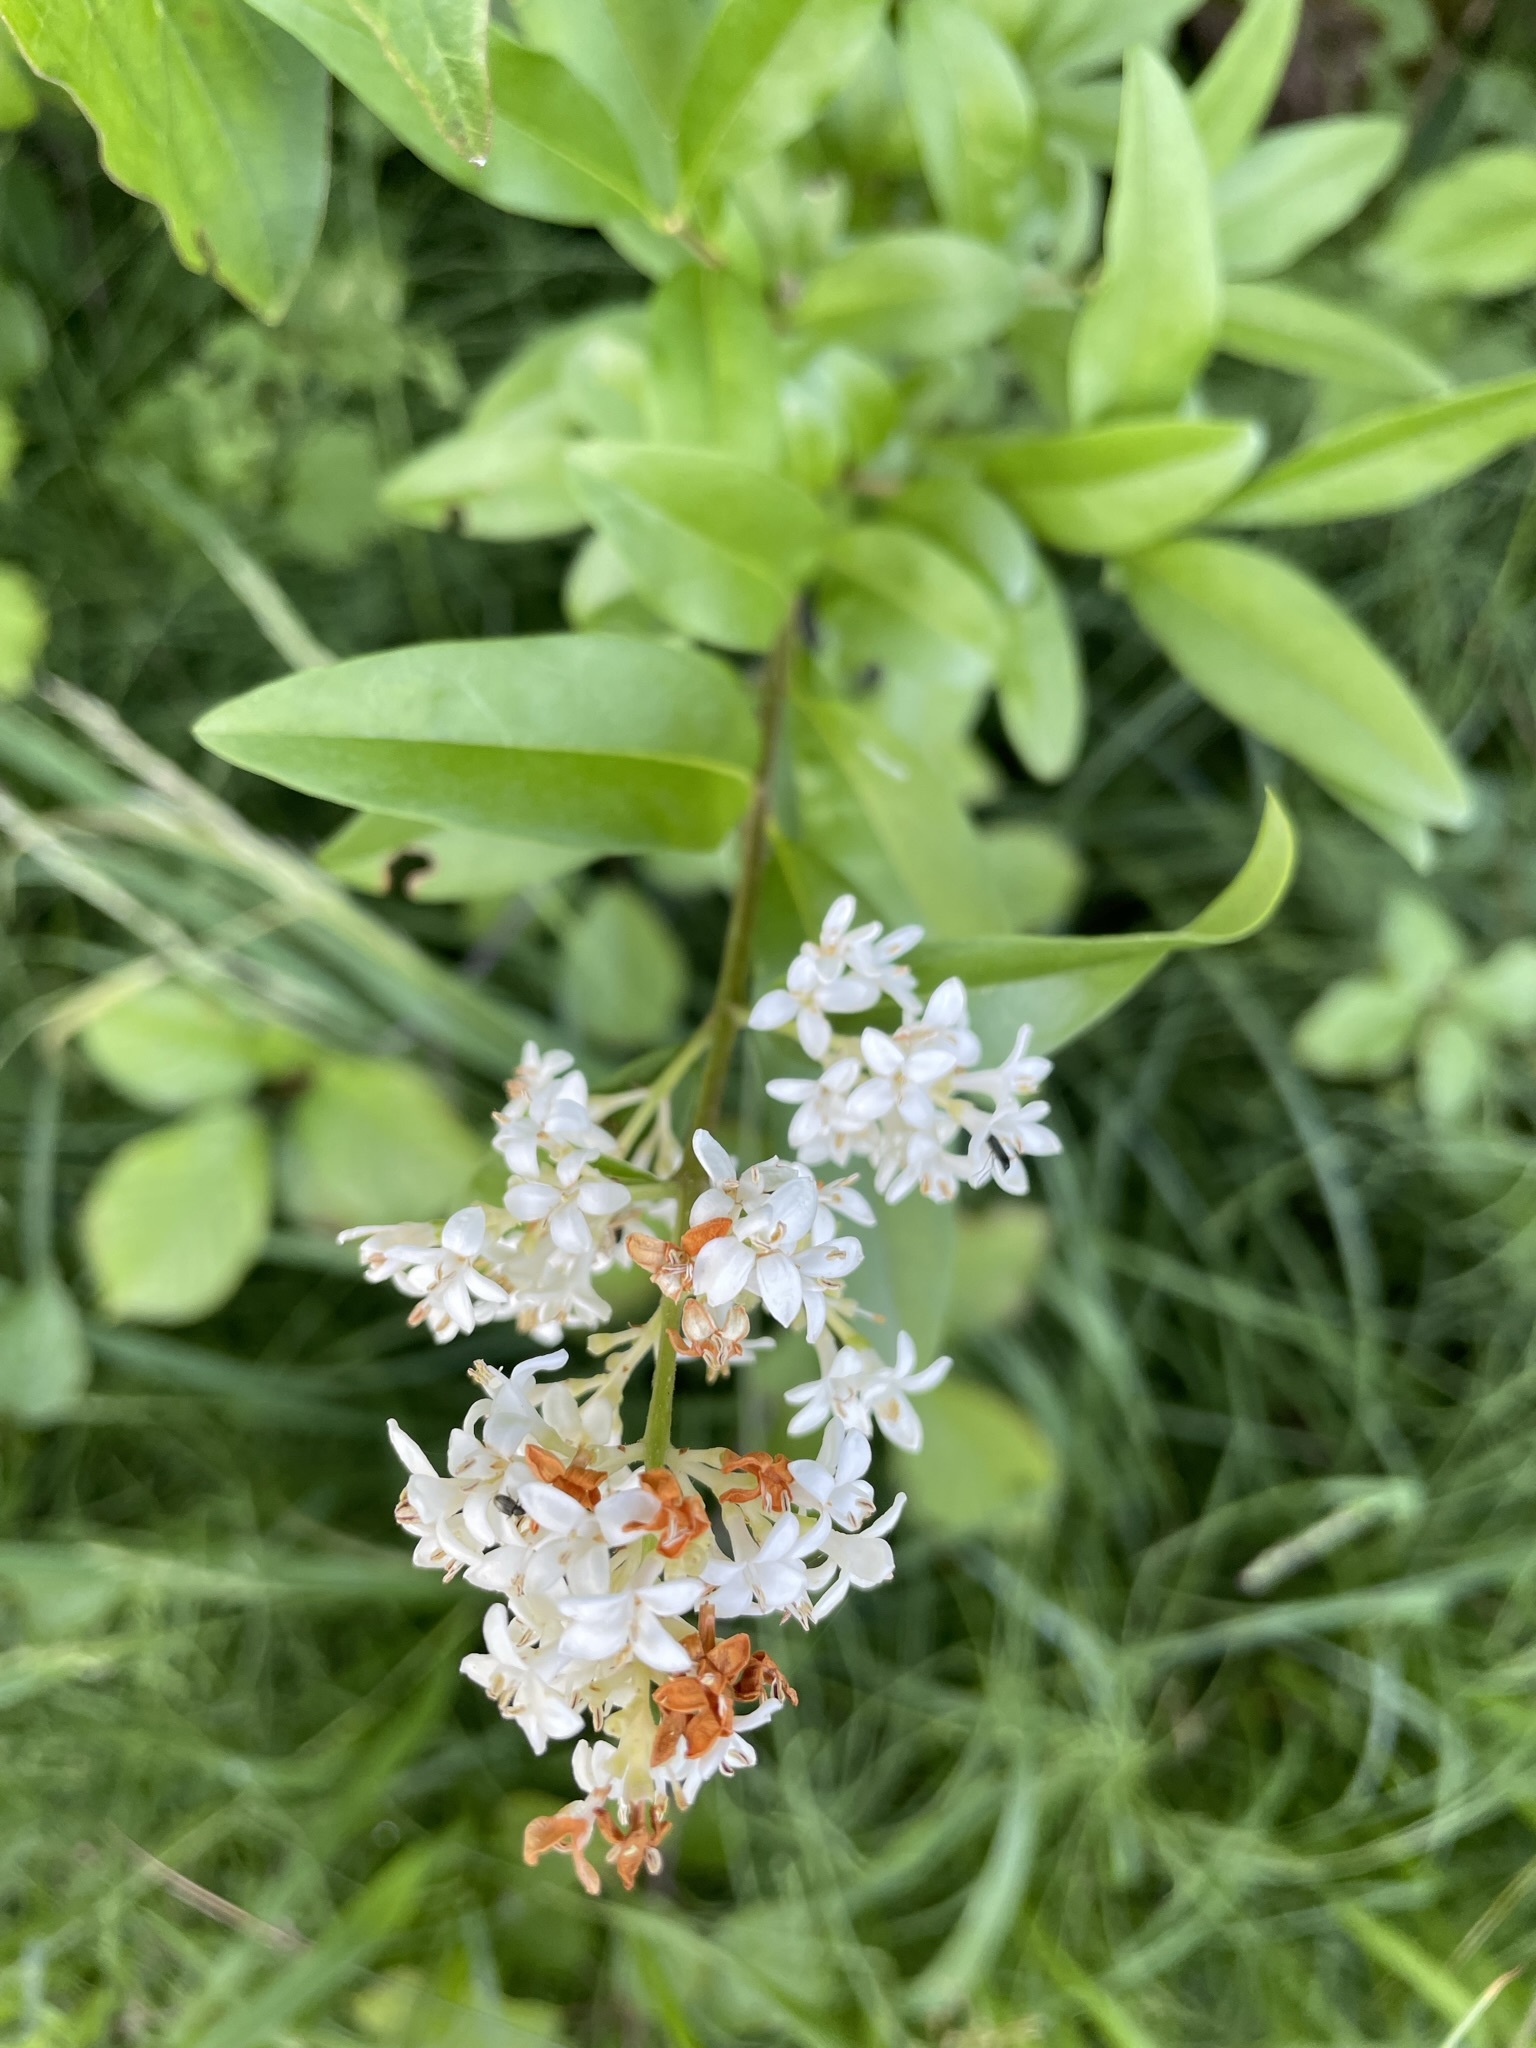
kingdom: Plantae
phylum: Tracheophyta
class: Magnoliopsida
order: Lamiales
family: Oleaceae
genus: Ligustrum
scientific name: Ligustrum vulgare
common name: Wild privet
